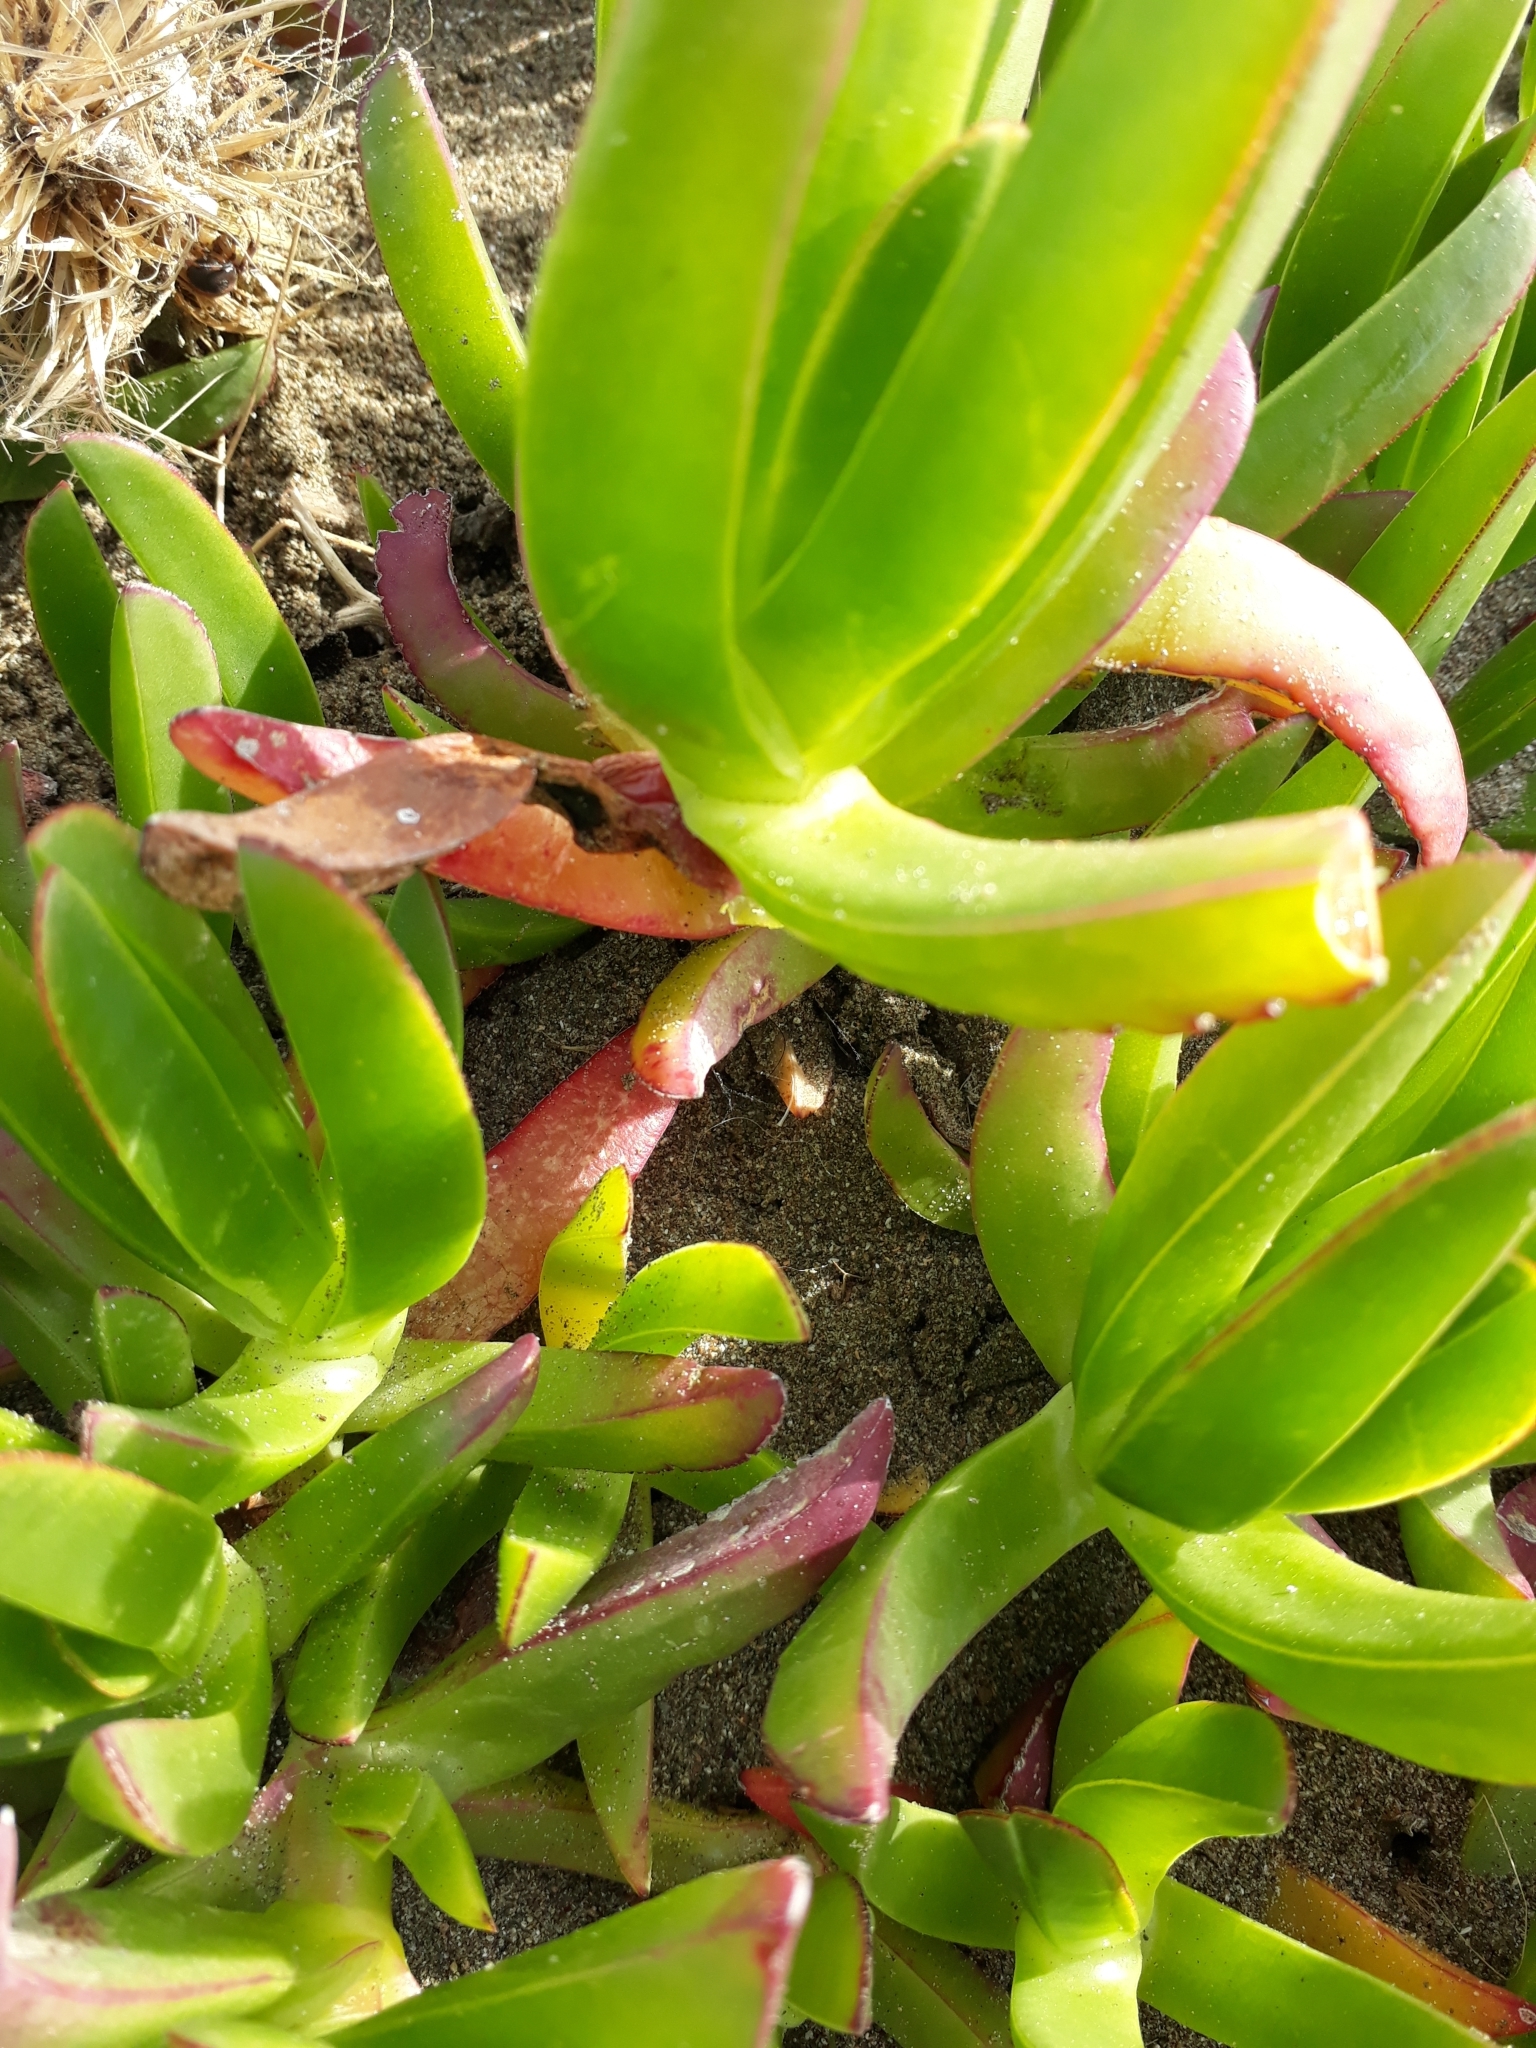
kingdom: Plantae
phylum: Tracheophyta
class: Magnoliopsida
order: Caryophyllales
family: Aizoaceae
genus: Carpobrotus
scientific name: Carpobrotus edulis
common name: Hottentot-fig
